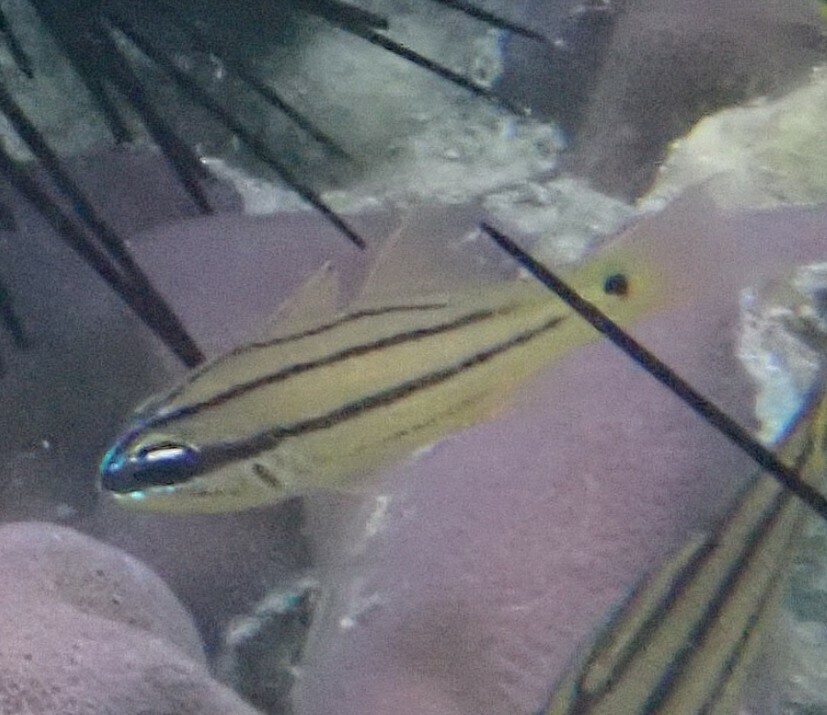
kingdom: Animalia
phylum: Chordata
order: Perciformes
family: Apogonidae
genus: Ostorhinchus
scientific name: Ostorhinchus sealei
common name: Seale's cardinalfish
